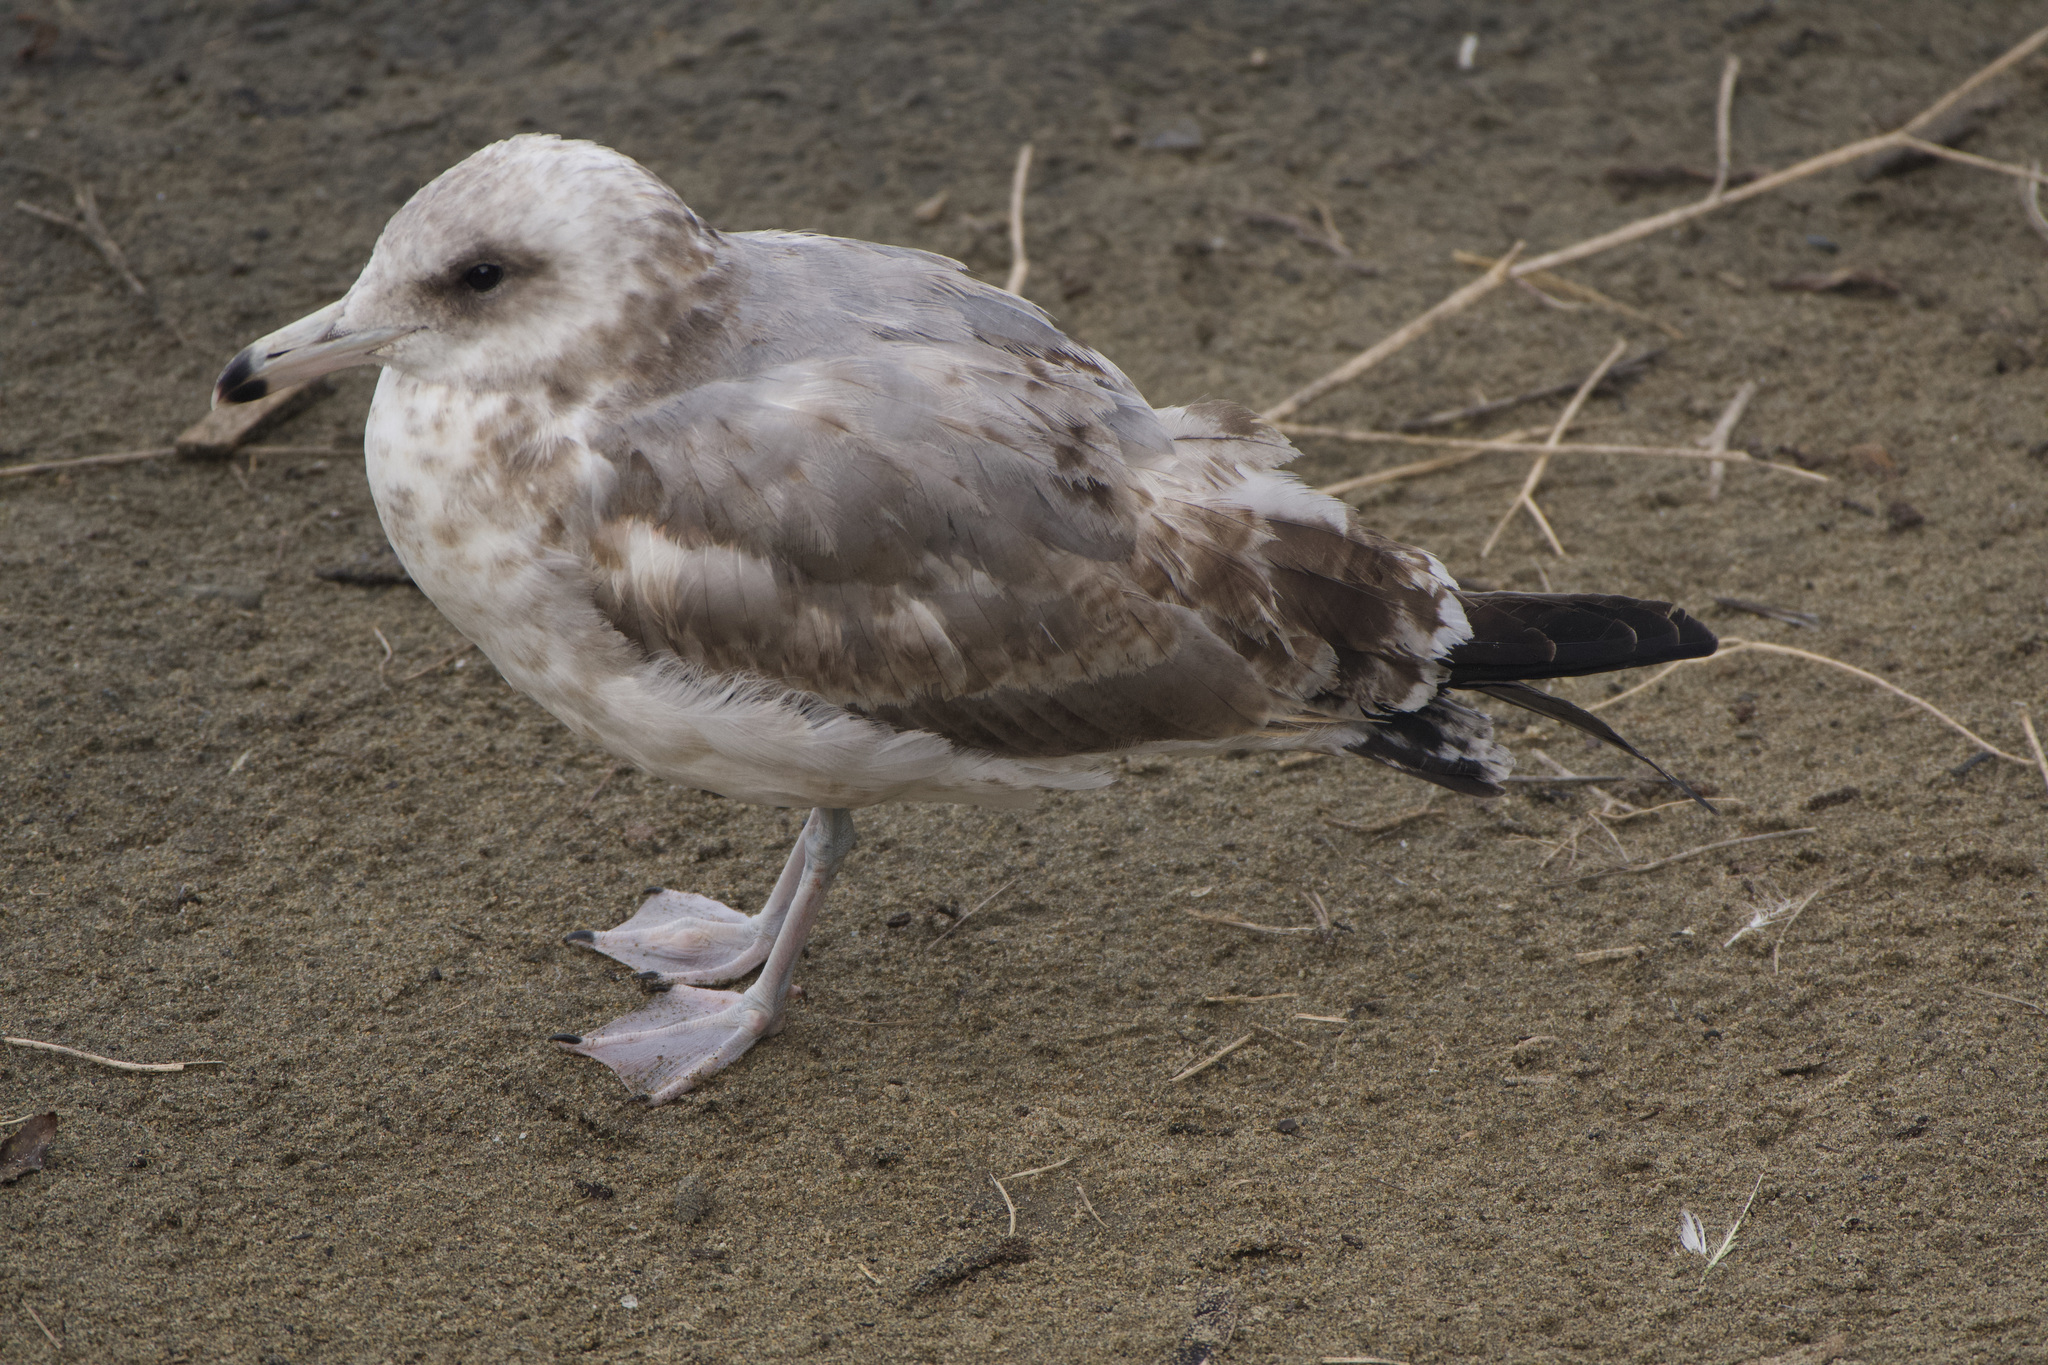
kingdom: Animalia
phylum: Chordata
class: Aves
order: Charadriiformes
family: Laridae
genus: Larus
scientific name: Larus californicus
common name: California gull
